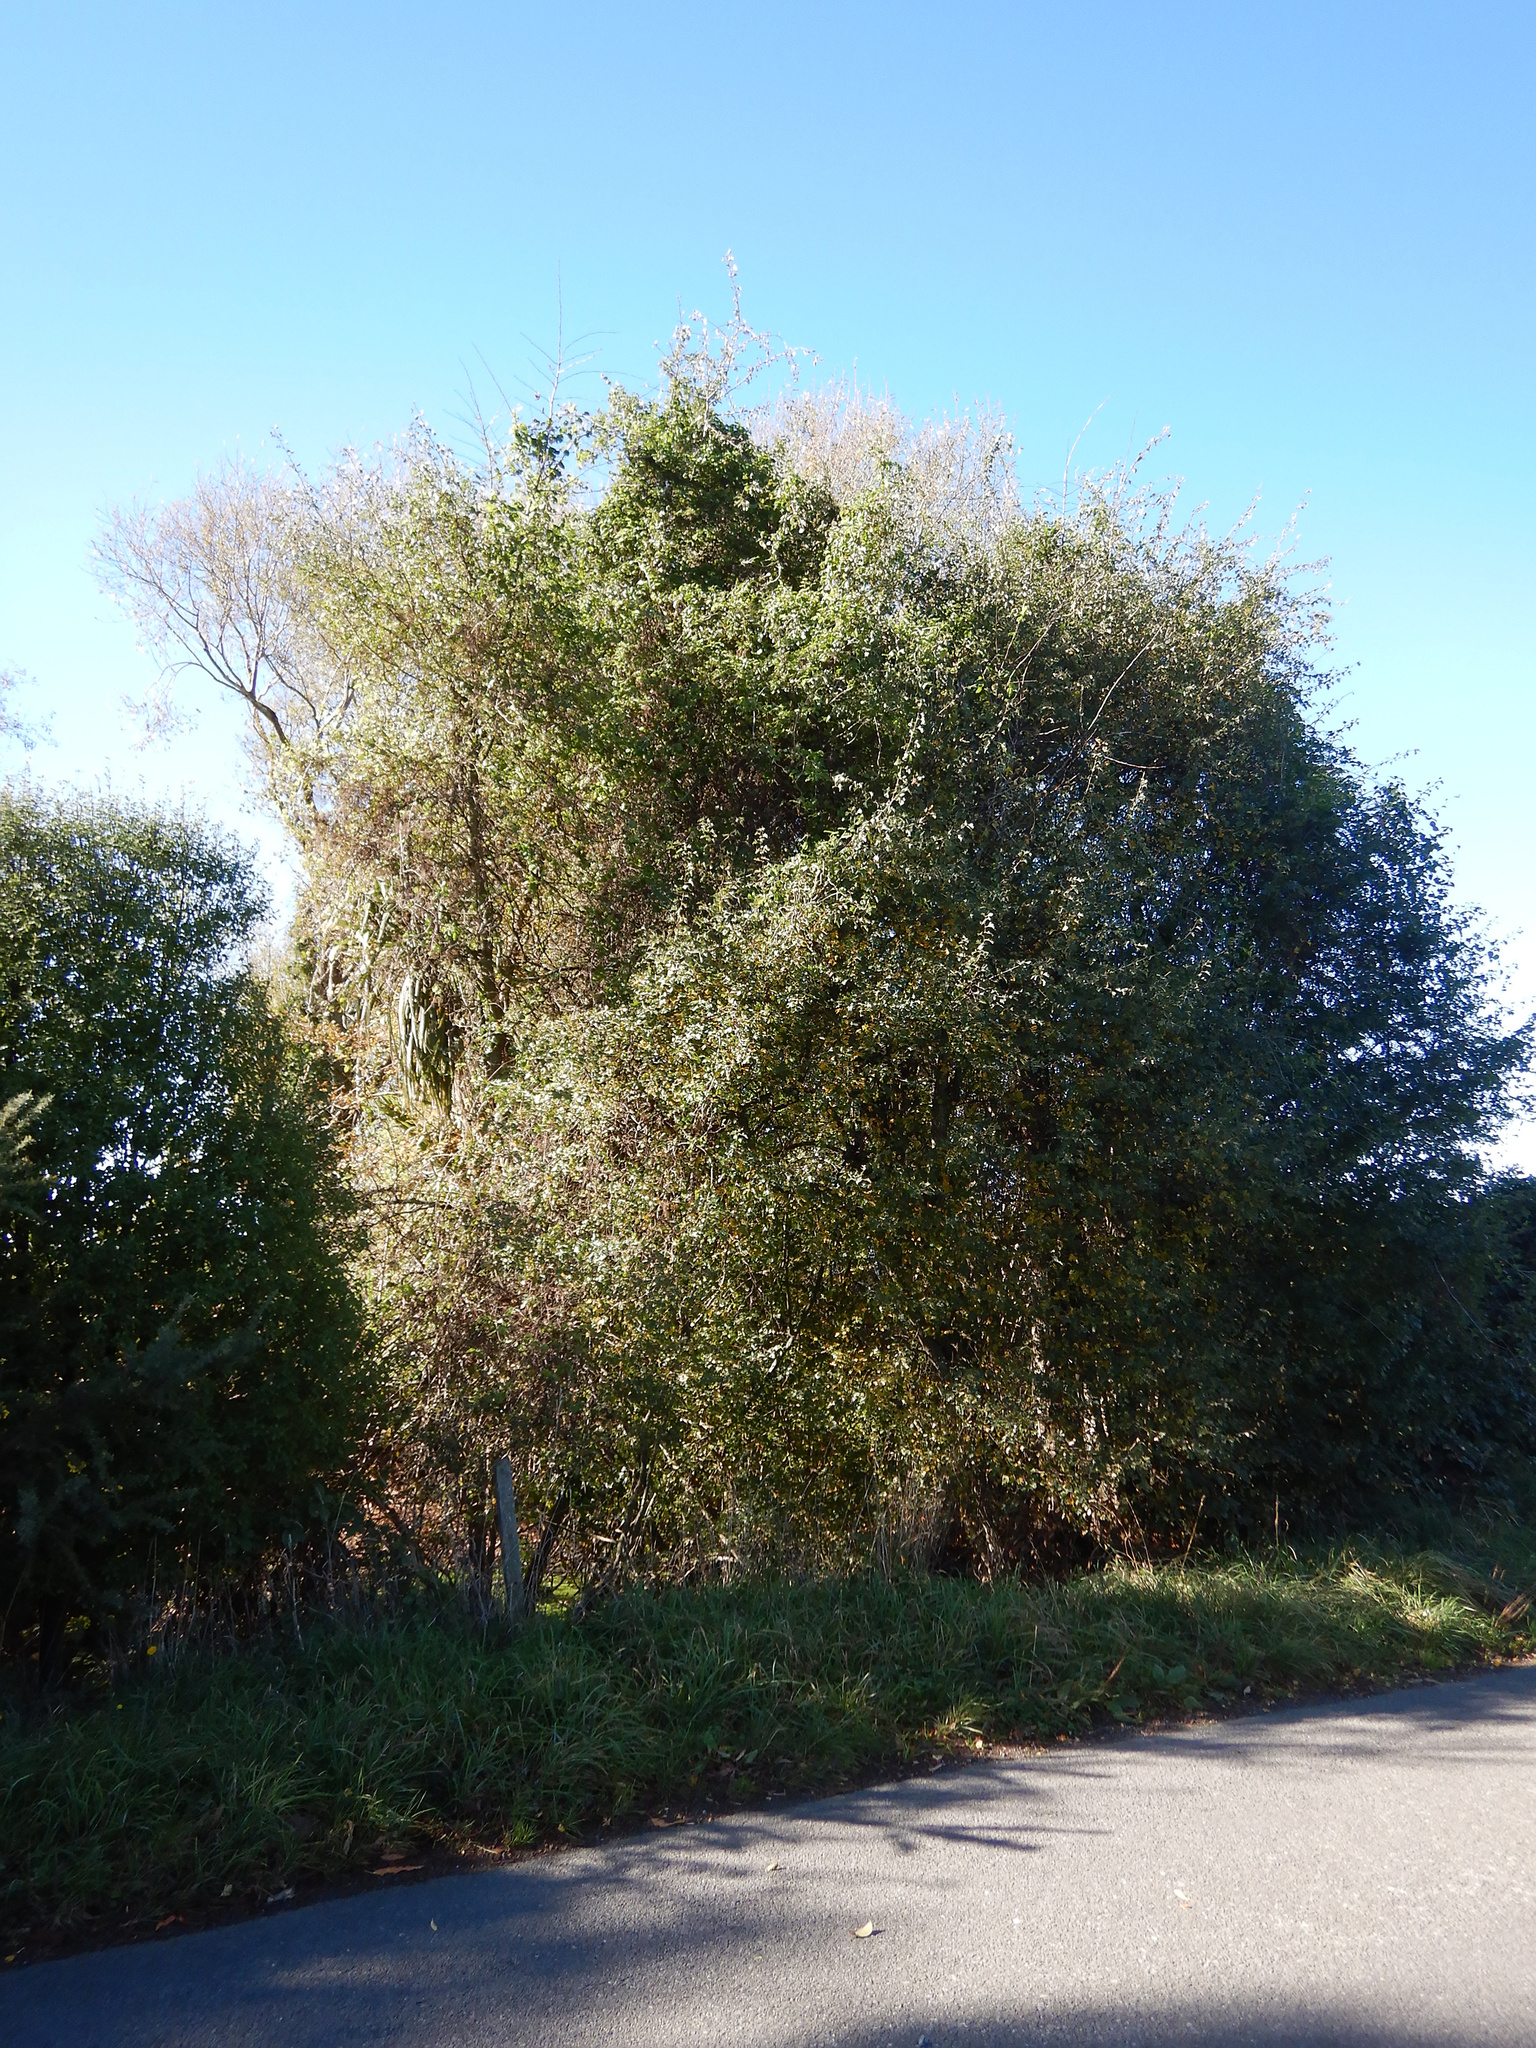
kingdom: Plantae
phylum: Tracheophyta
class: Magnoliopsida
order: Rosales
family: Rosaceae
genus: Crataegus
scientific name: Crataegus monogyna
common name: Hawthorn
